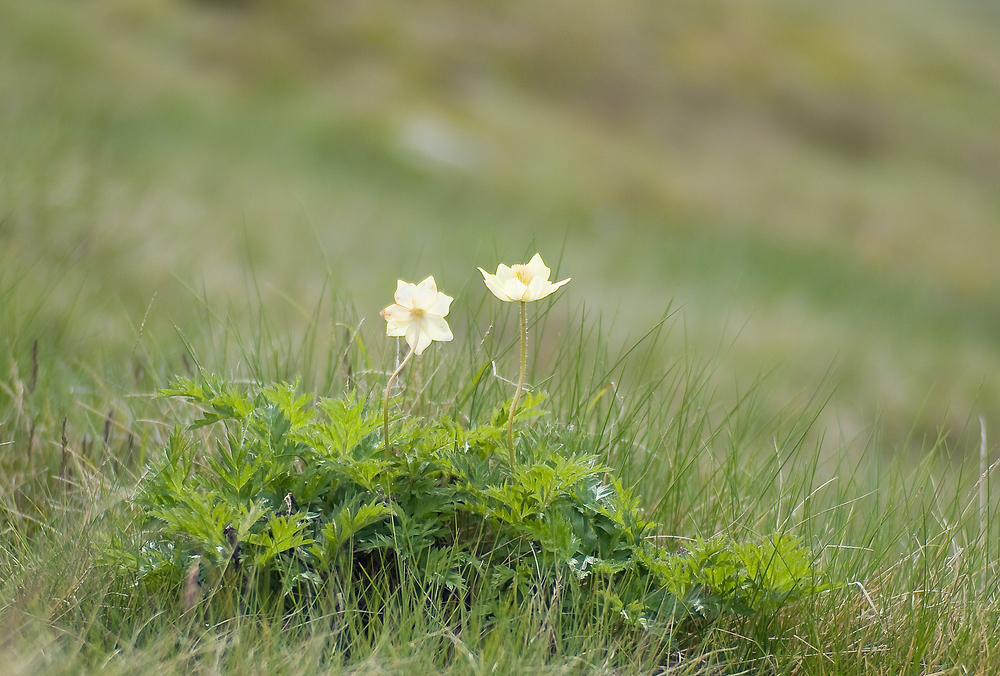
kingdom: Plantae
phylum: Tracheophyta
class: Magnoliopsida
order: Ranunculales
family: Ranunculaceae
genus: Pulsatilla
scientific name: Pulsatilla alpina
